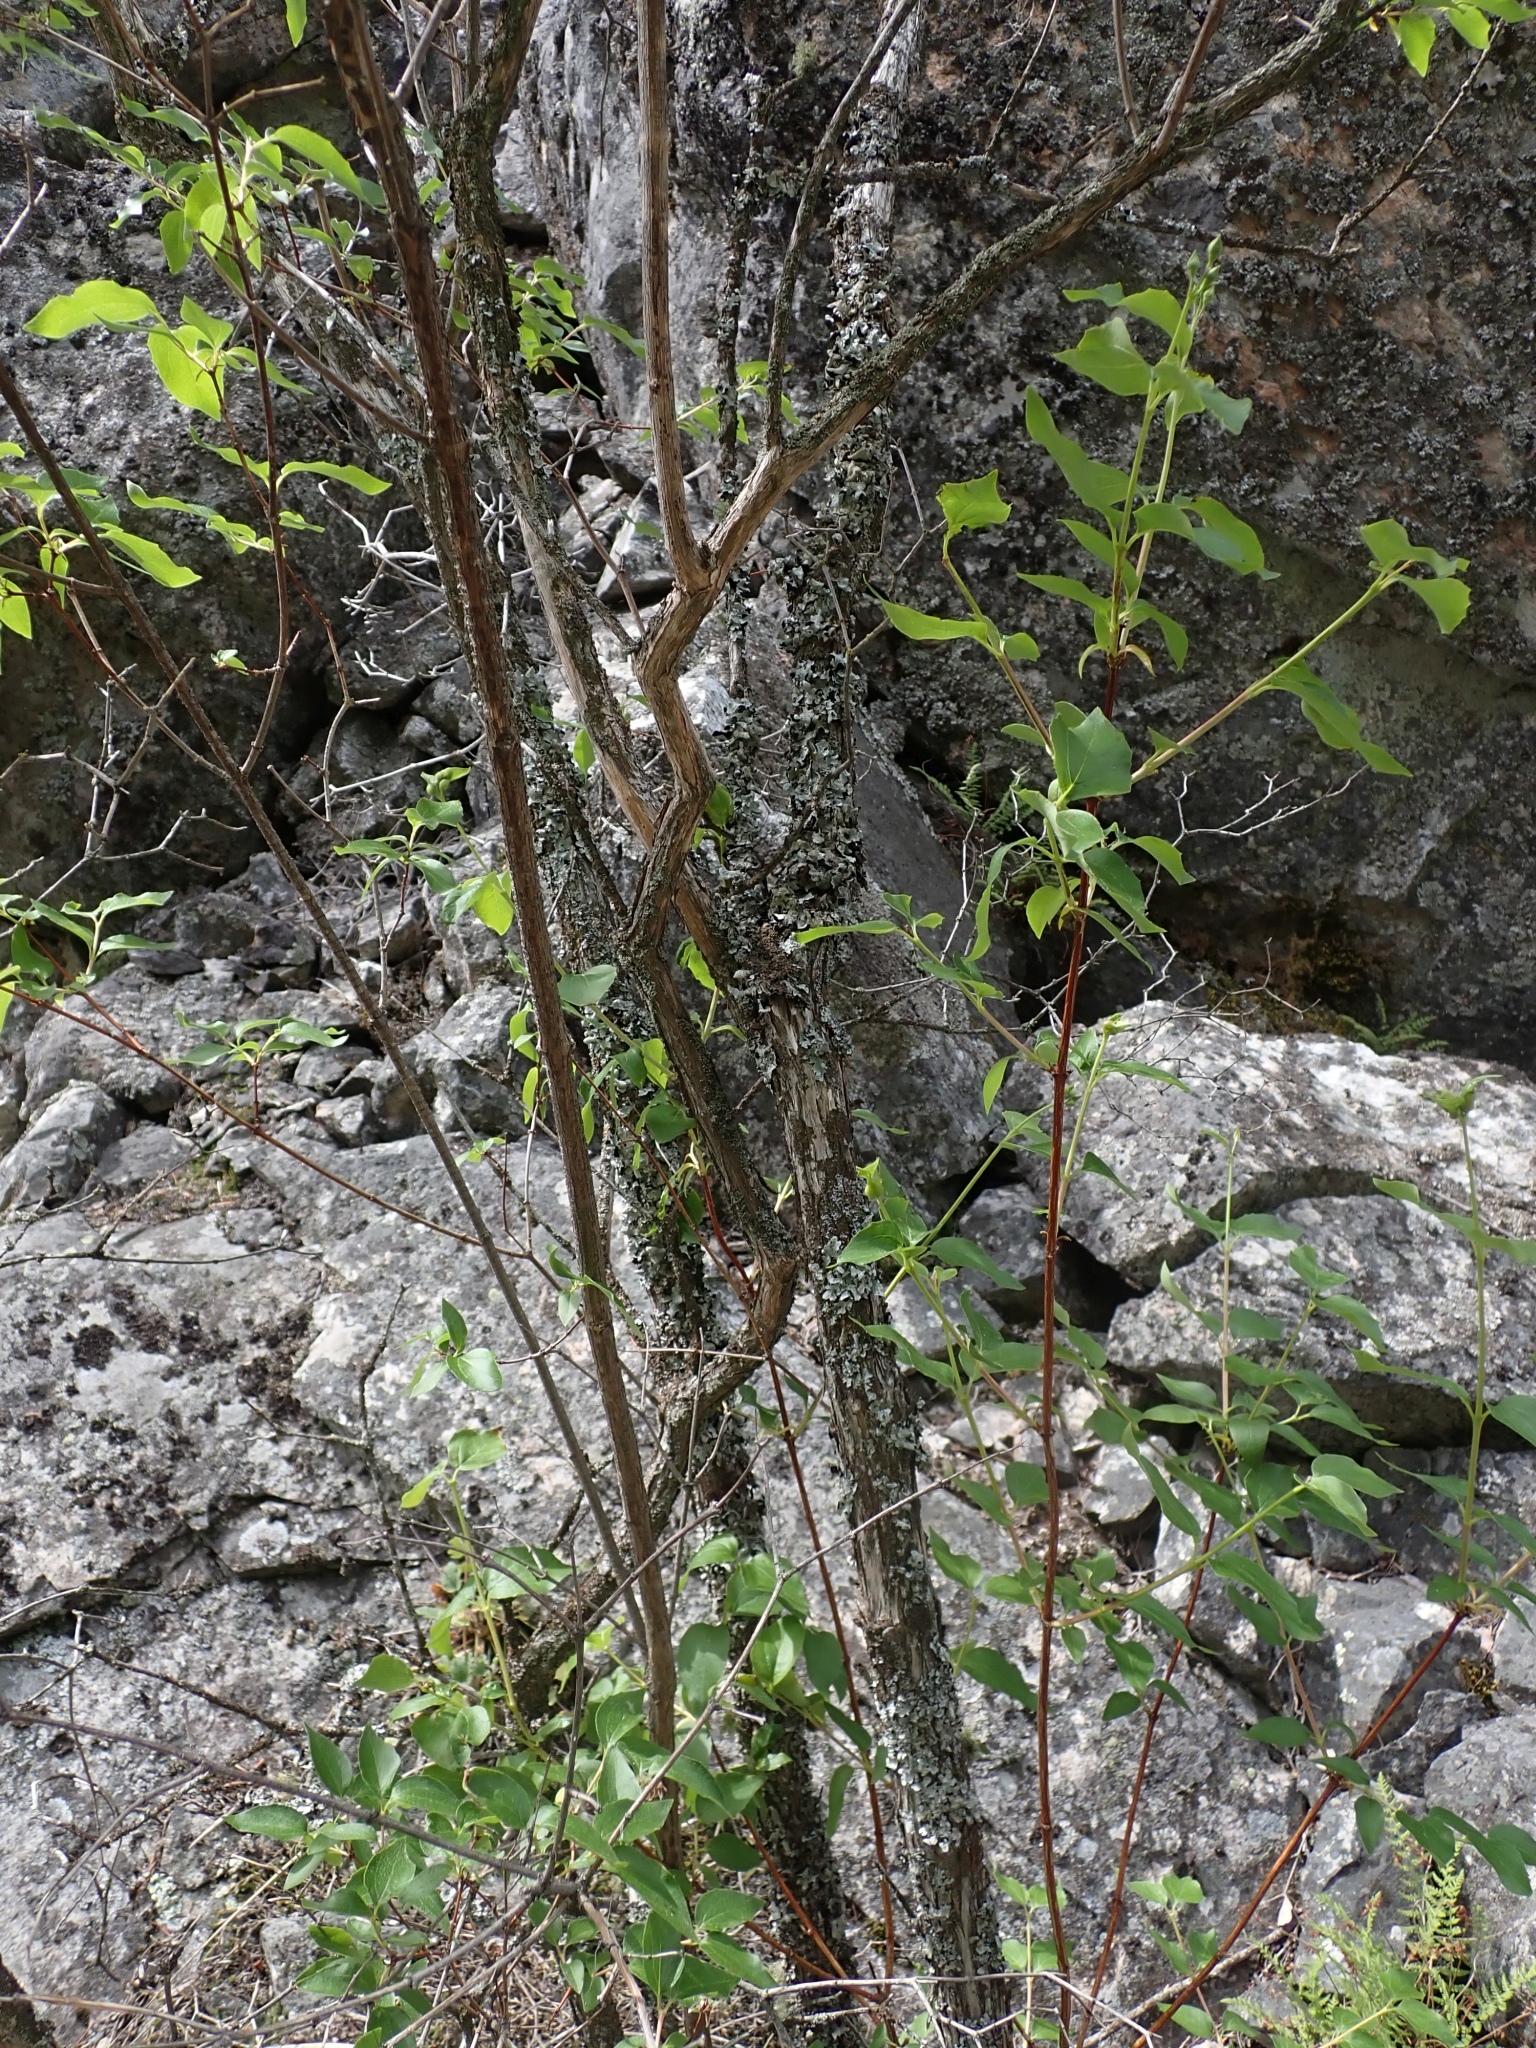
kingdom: Plantae
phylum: Tracheophyta
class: Magnoliopsida
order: Cornales
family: Hydrangeaceae
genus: Philadelphus
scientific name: Philadelphus lewisii
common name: Lewis's mock orange
